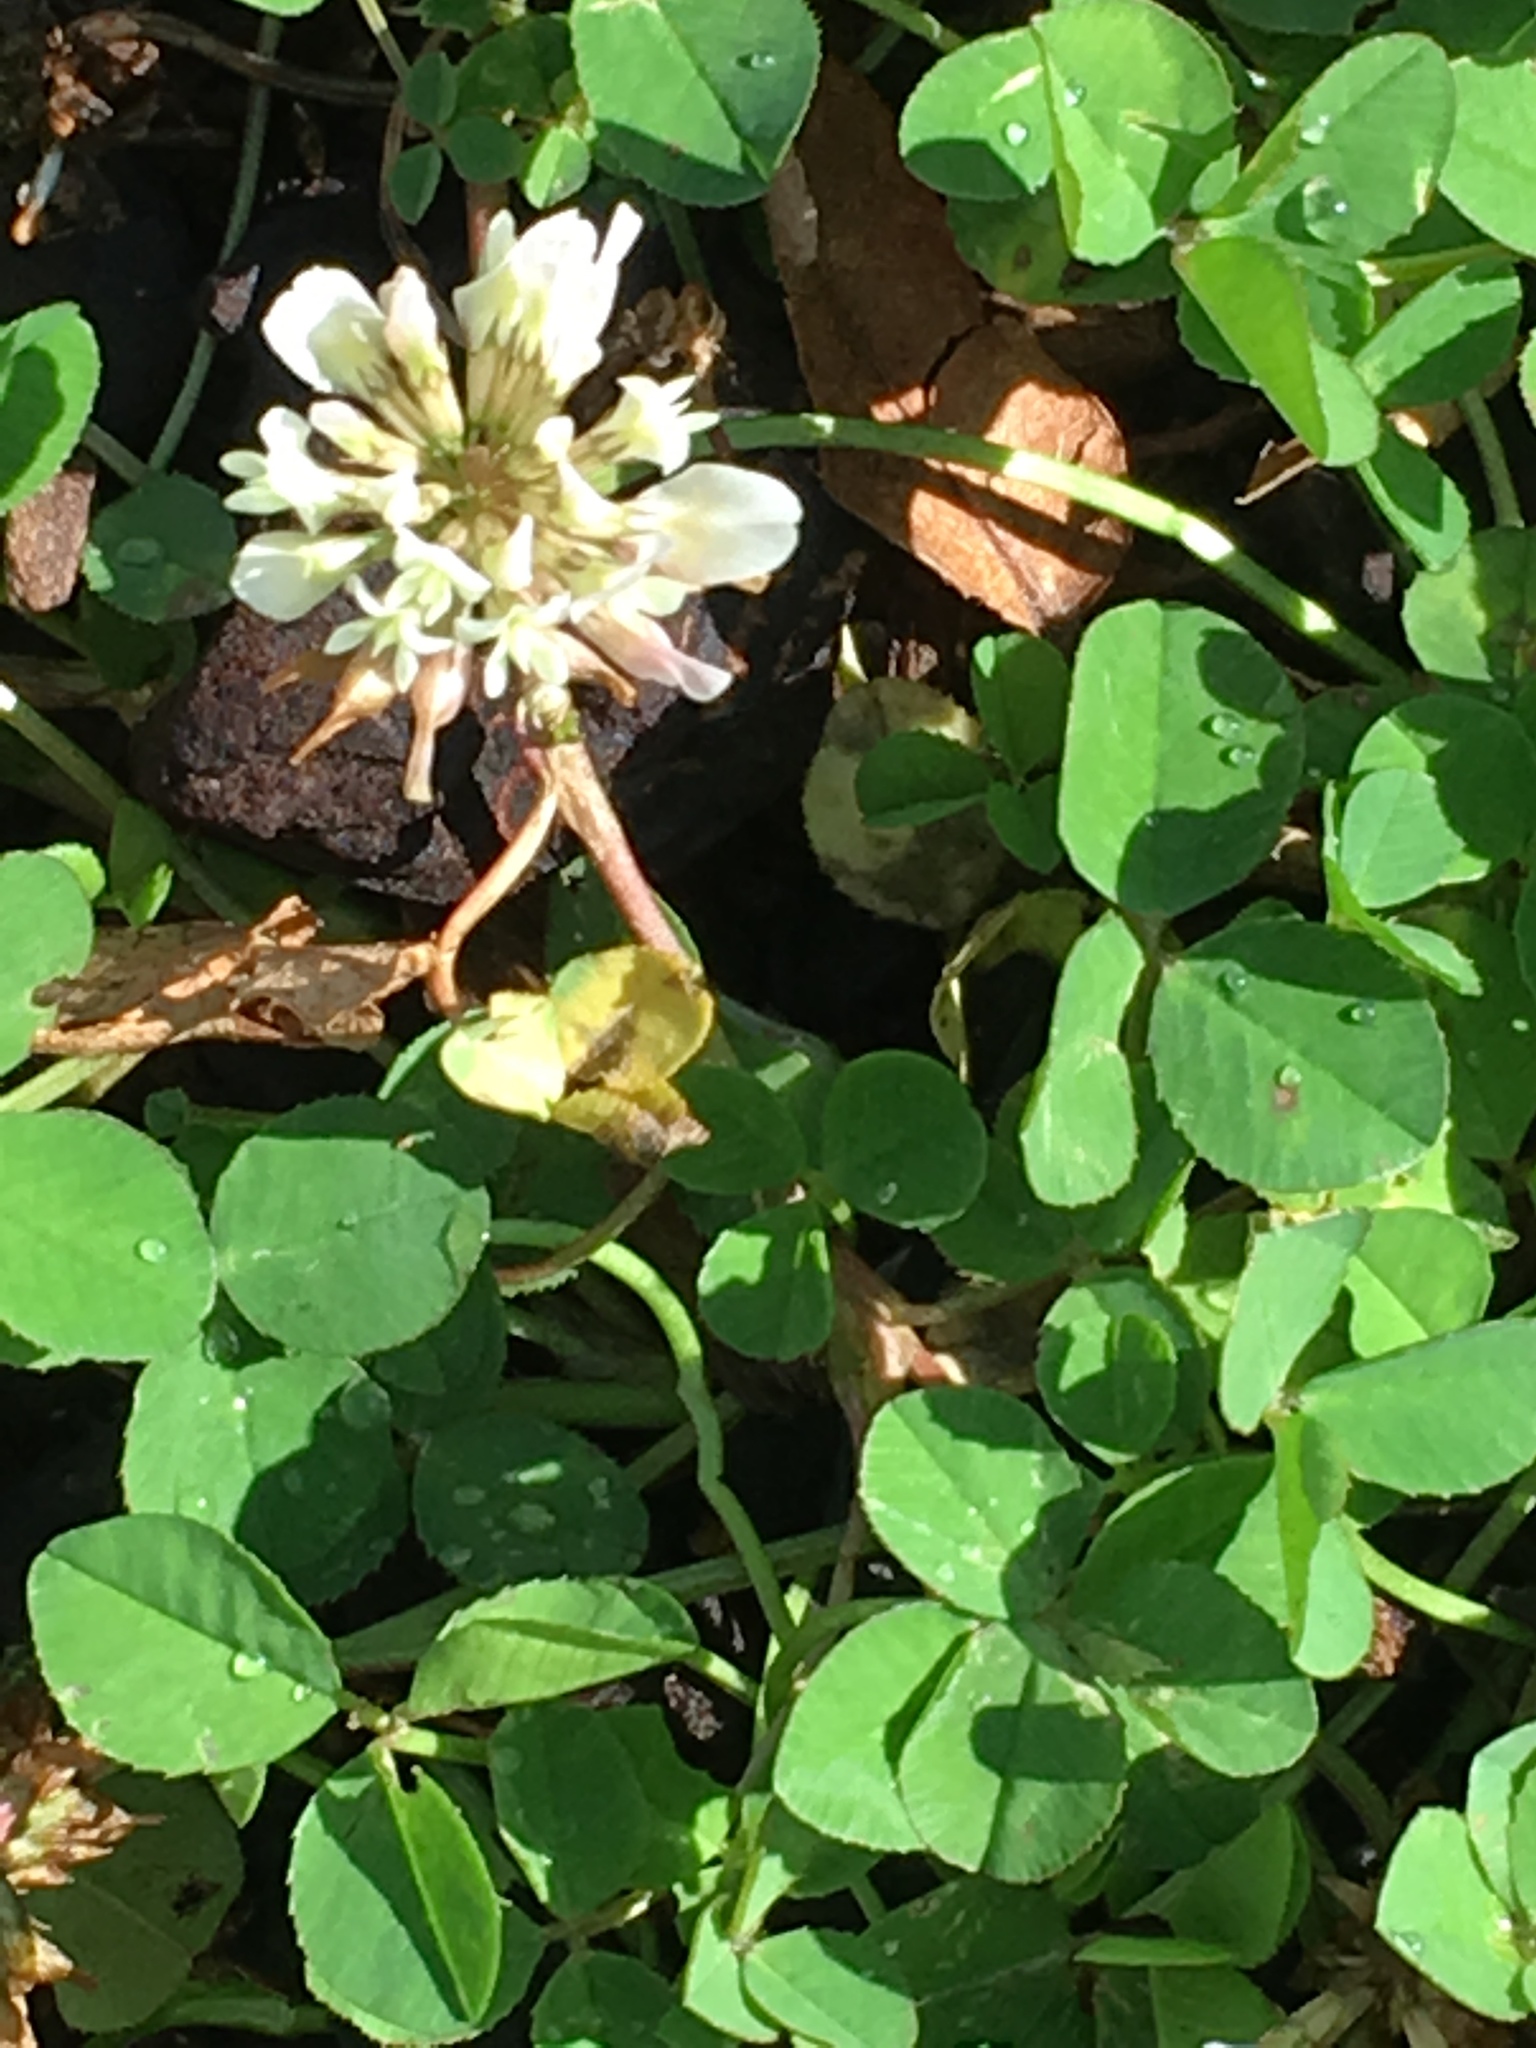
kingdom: Plantae
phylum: Tracheophyta
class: Magnoliopsida
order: Fabales
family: Fabaceae
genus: Trifolium
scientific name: Trifolium repens
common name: White clover
